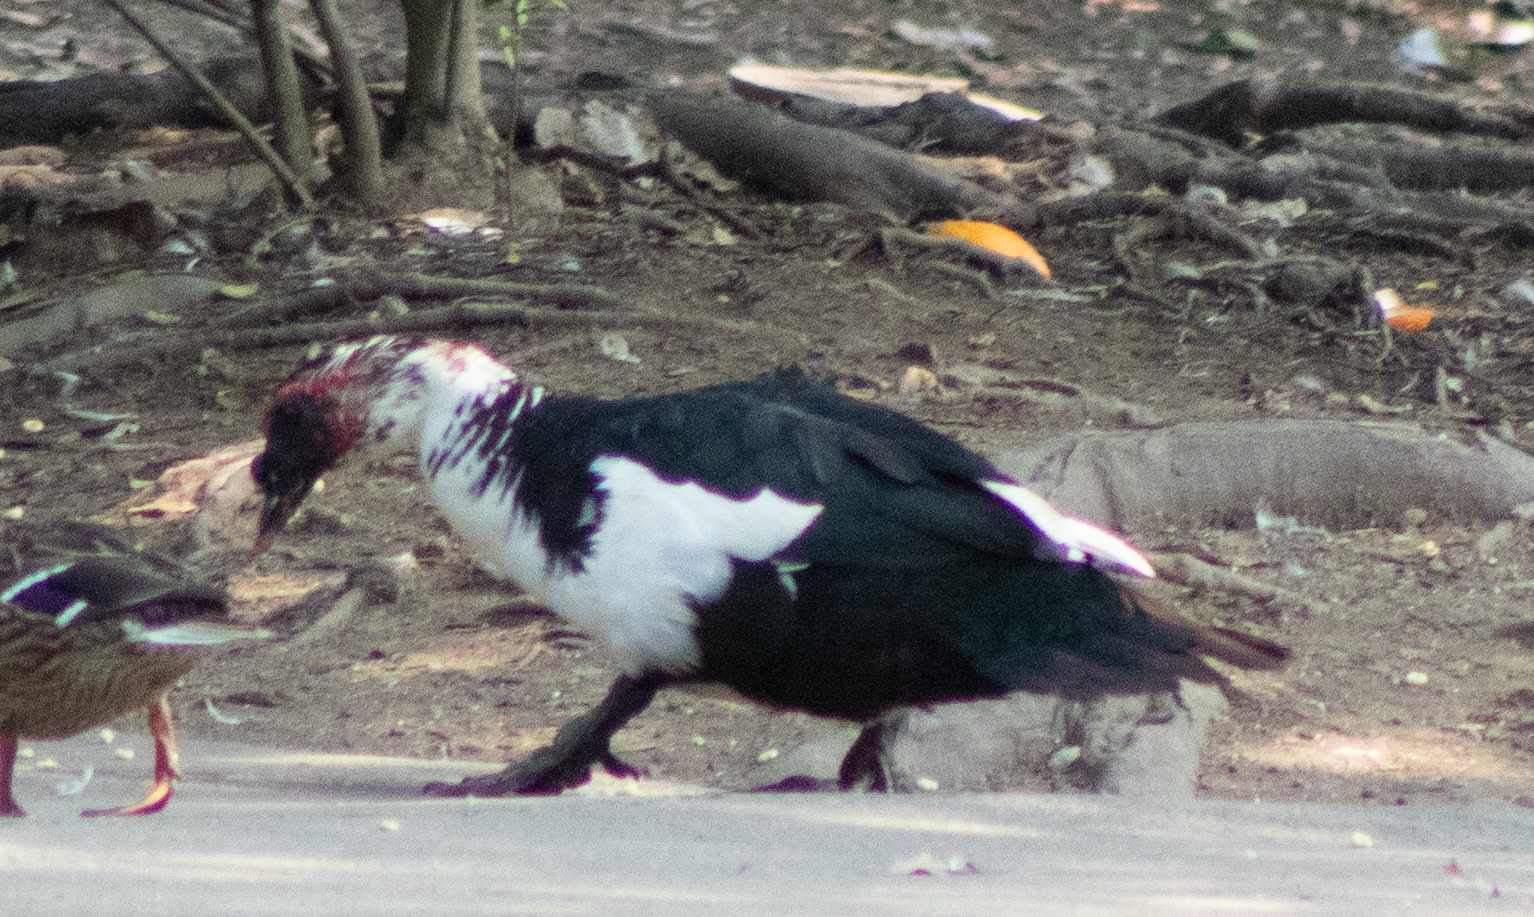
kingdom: Animalia
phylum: Chordata
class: Aves
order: Anseriformes
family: Anatidae
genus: Cairina
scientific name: Cairina moschata
